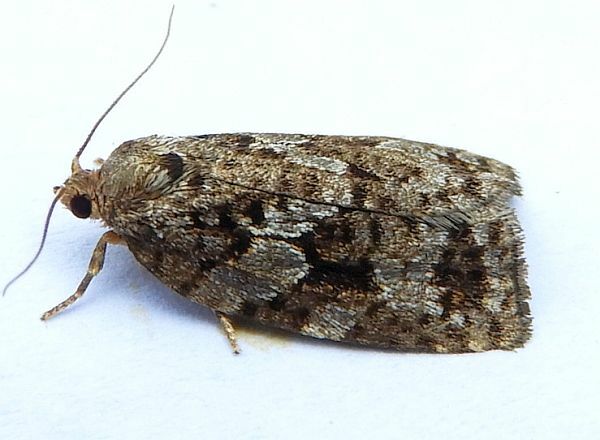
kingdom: Animalia
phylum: Arthropoda
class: Insecta
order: Lepidoptera
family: Tortricidae
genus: Choristoneura
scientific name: Choristoneura fumiferana
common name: Spruce budworm
